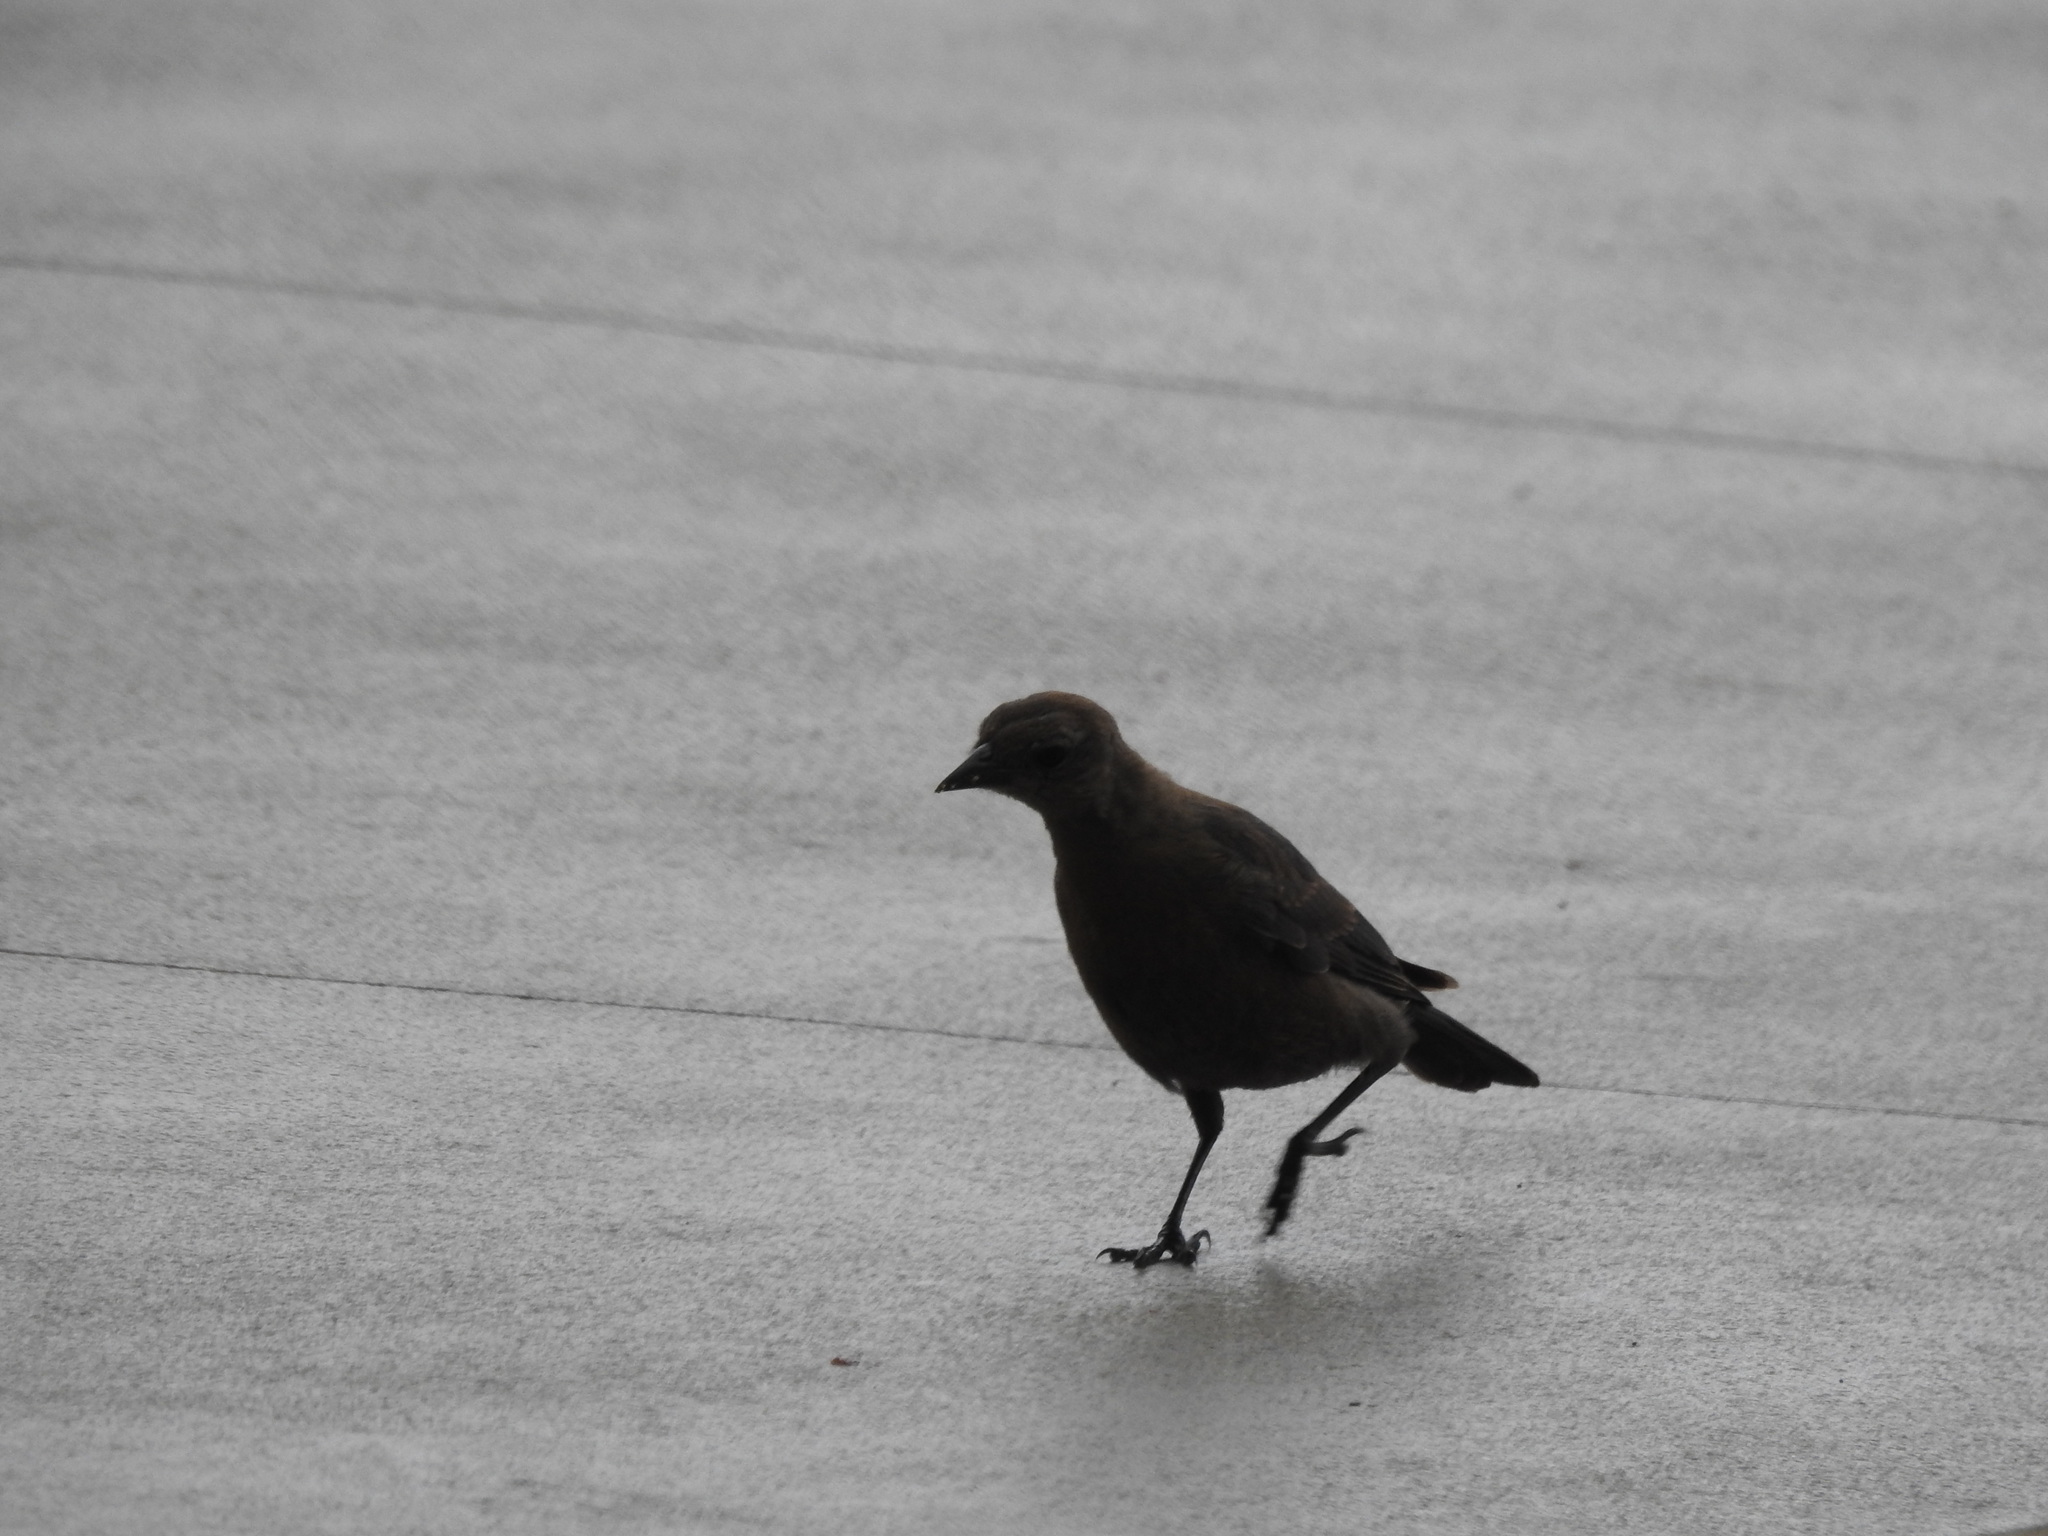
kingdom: Animalia
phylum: Chordata
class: Aves
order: Passeriformes
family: Icteridae
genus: Euphagus
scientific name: Euphagus cyanocephalus
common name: Brewer's blackbird
